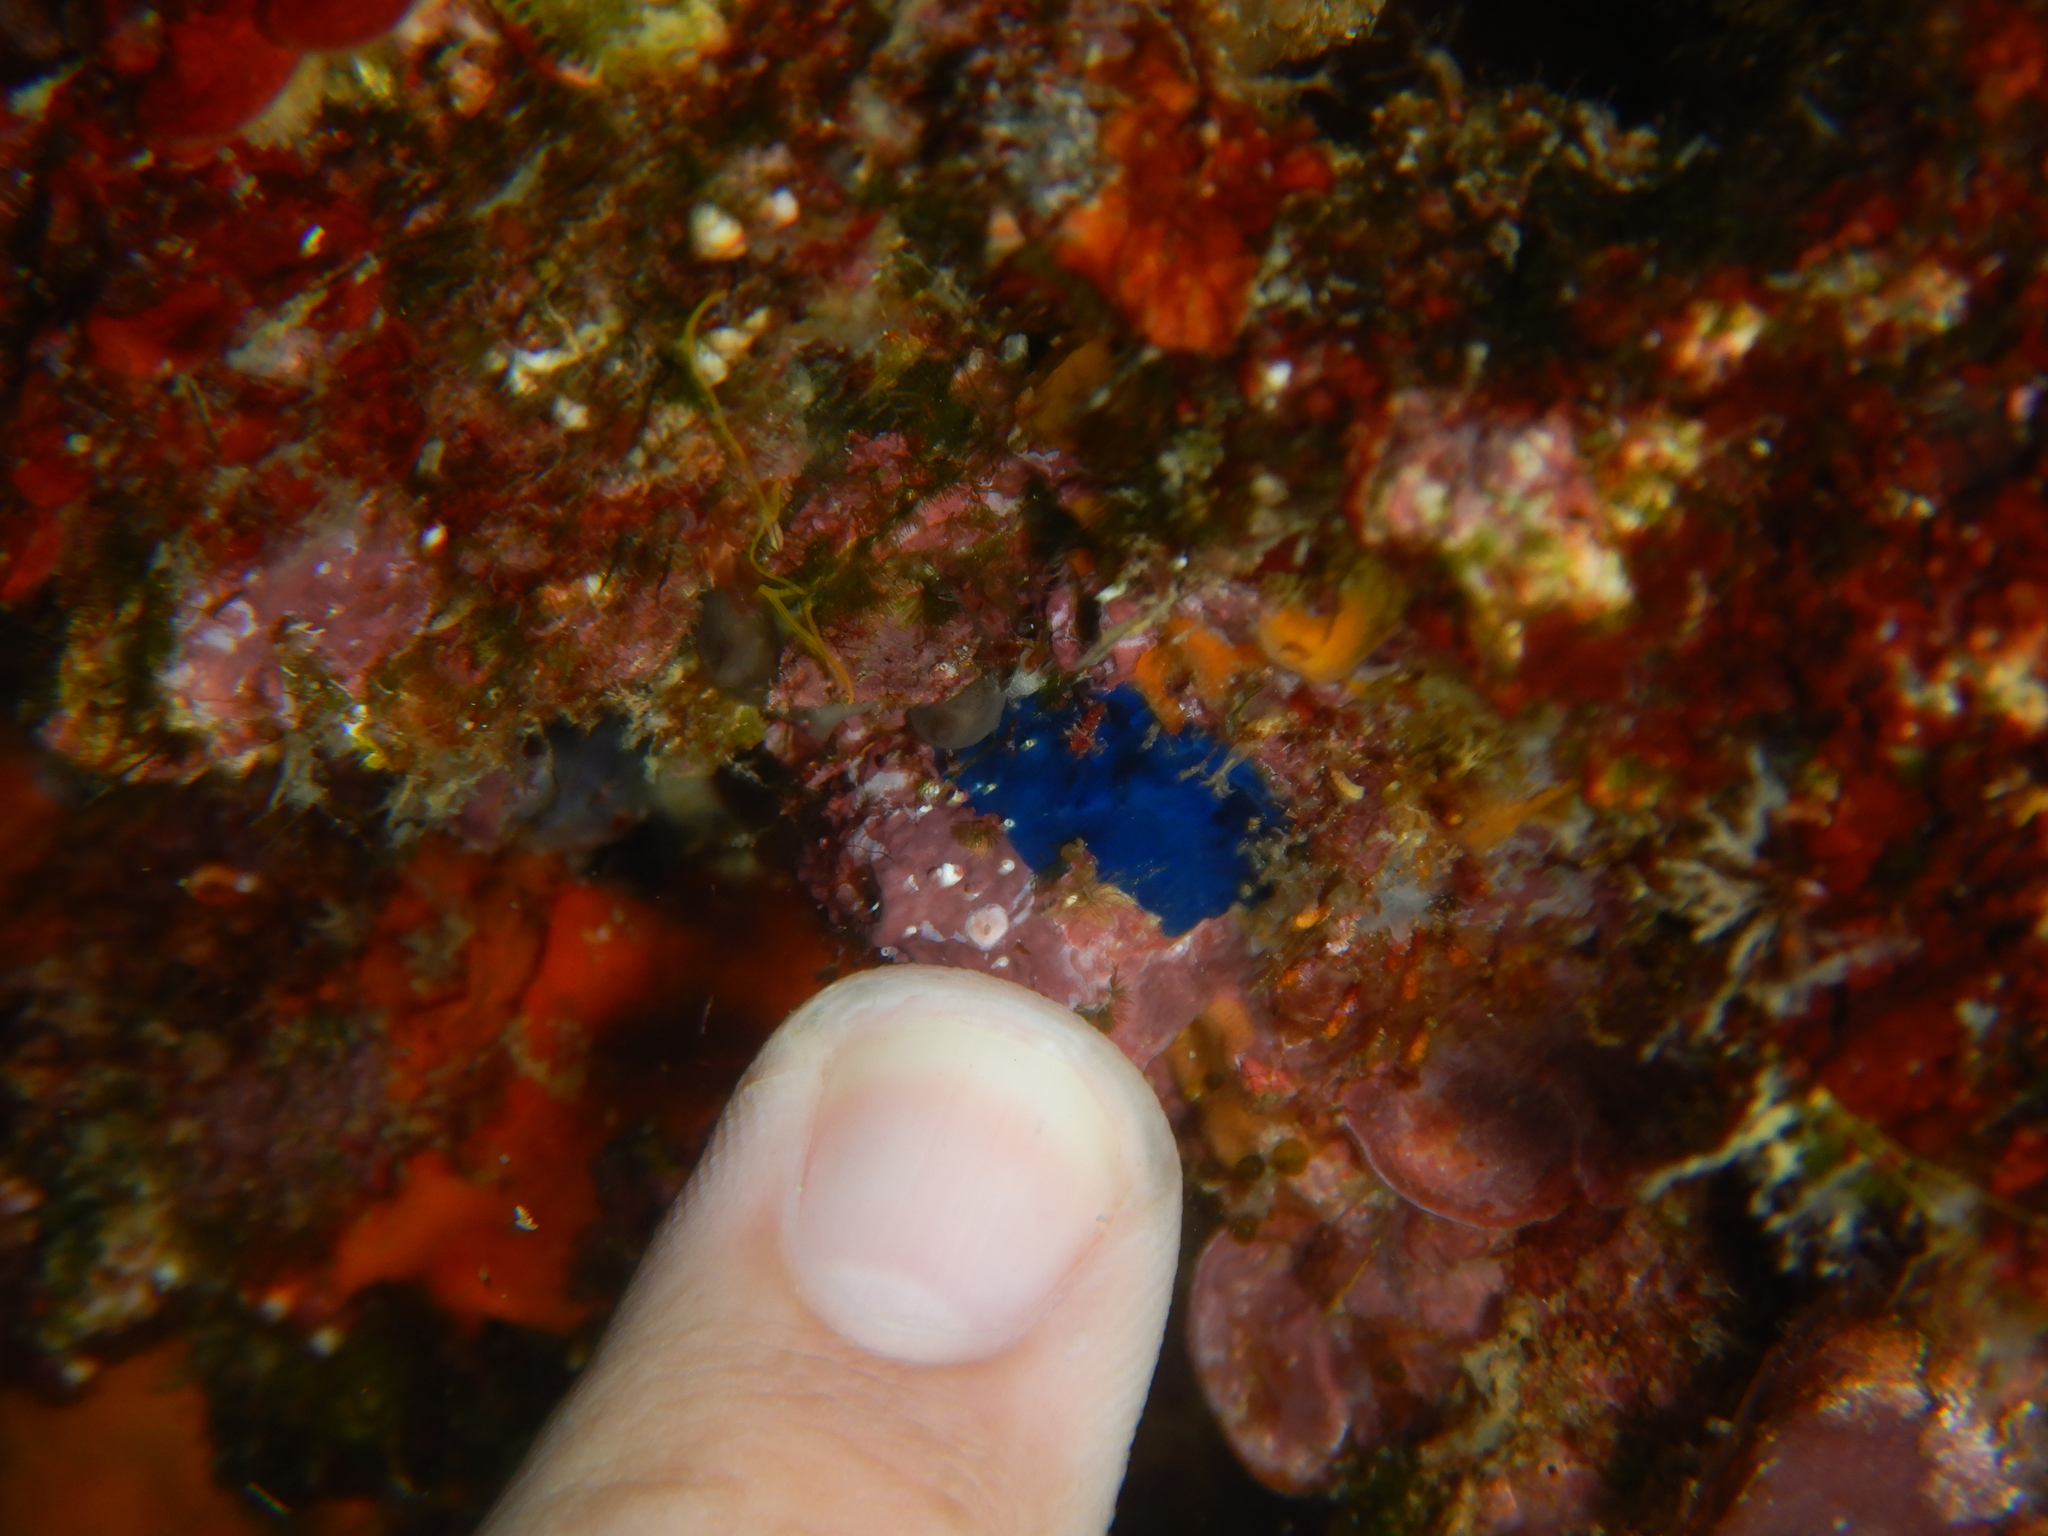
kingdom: Animalia
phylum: Porifera
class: Demospongiae
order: Suberitida
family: Suberitidae
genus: Terpios
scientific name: Terpios gelatinosus
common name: Blue encrusting sponge
